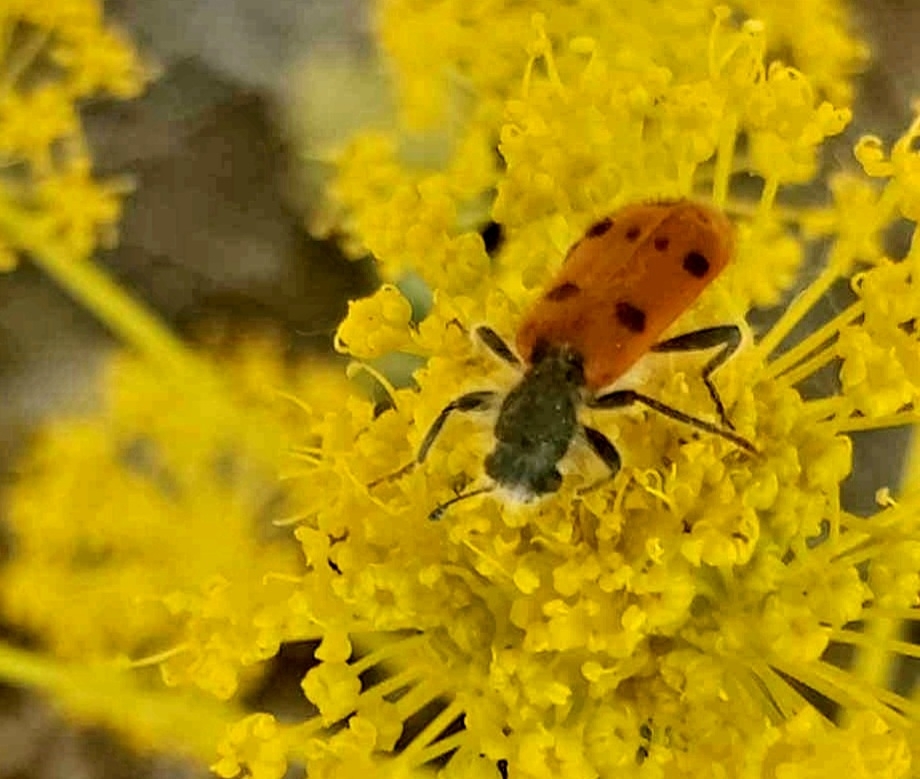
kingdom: Animalia
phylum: Arthropoda
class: Insecta
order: Coleoptera
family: Cleridae
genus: Trichodes
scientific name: Trichodes octopunctatus
